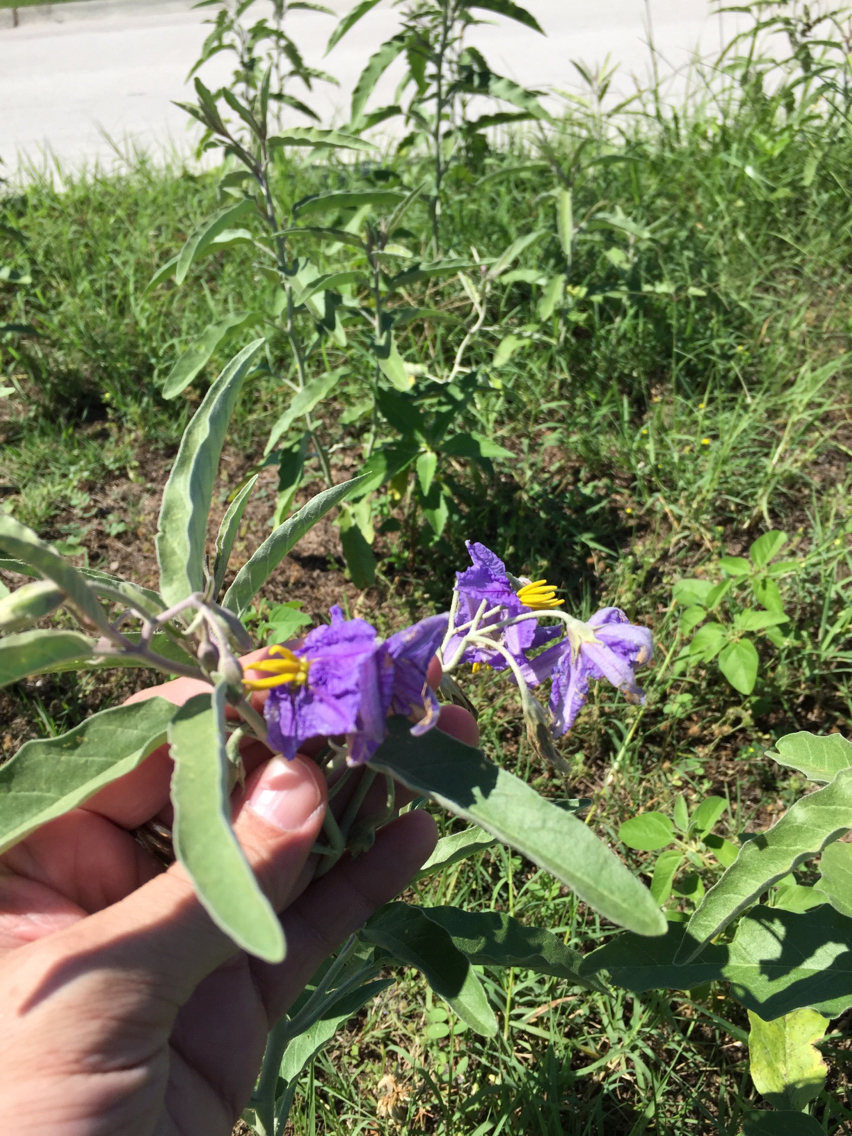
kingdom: Plantae
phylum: Tracheophyta
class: Magnoliopsida
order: Solanales
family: Solanaceae
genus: Solanum
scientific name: Solanum elaeagnifolium
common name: Silverleaf nightshade
